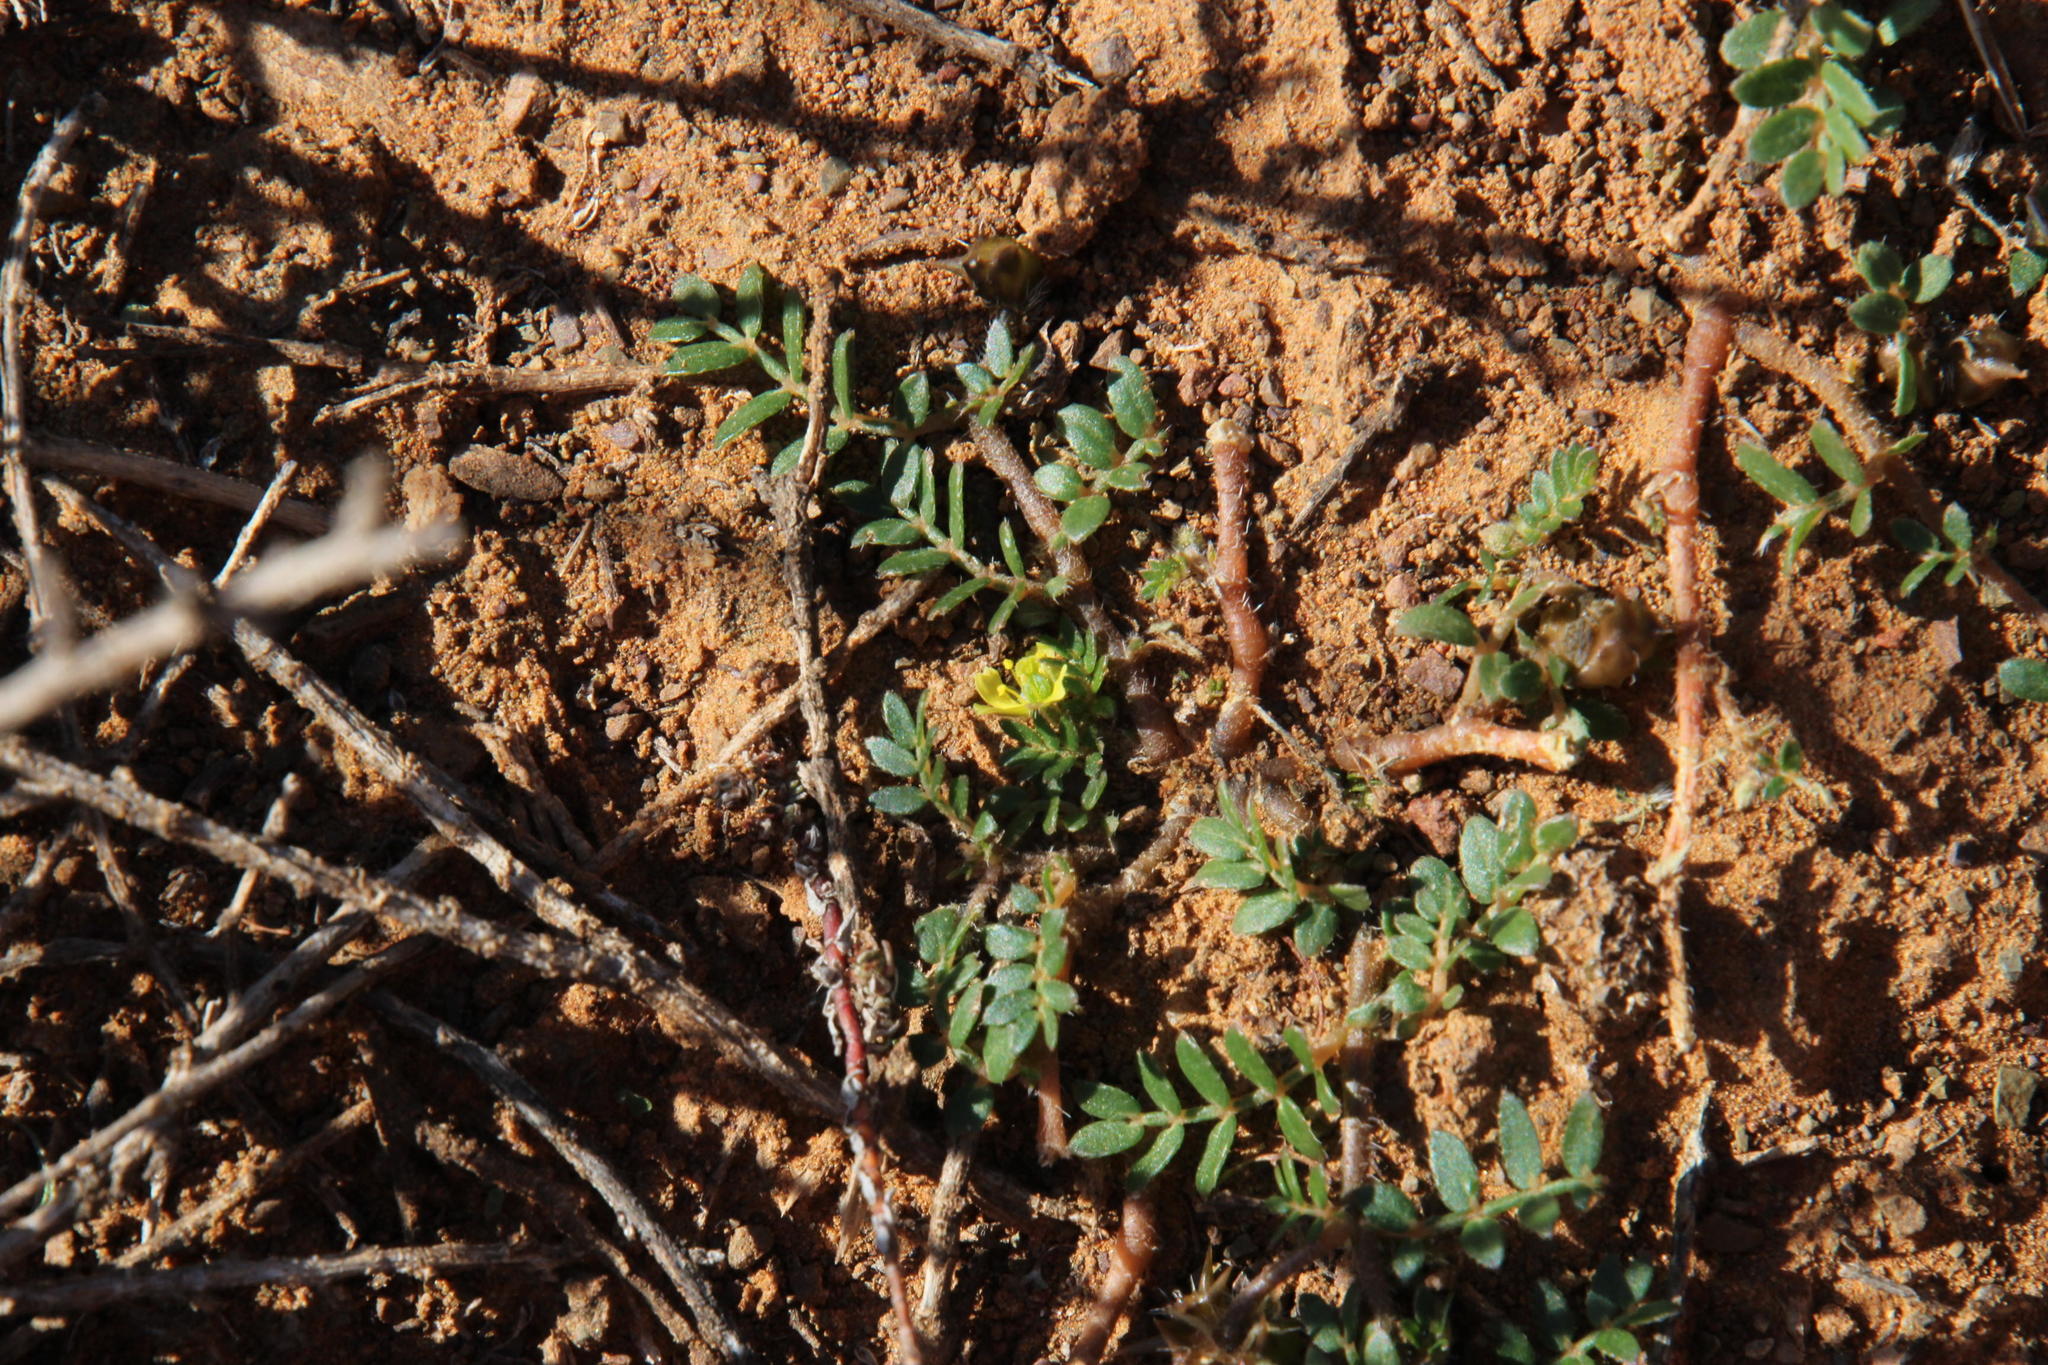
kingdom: Plantae
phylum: Tracheophyta
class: Magnoliopsida
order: Zygophyllales
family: Zygophyllaceae
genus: Tribulus
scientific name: Tribulus terrestris
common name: Puncturevine
